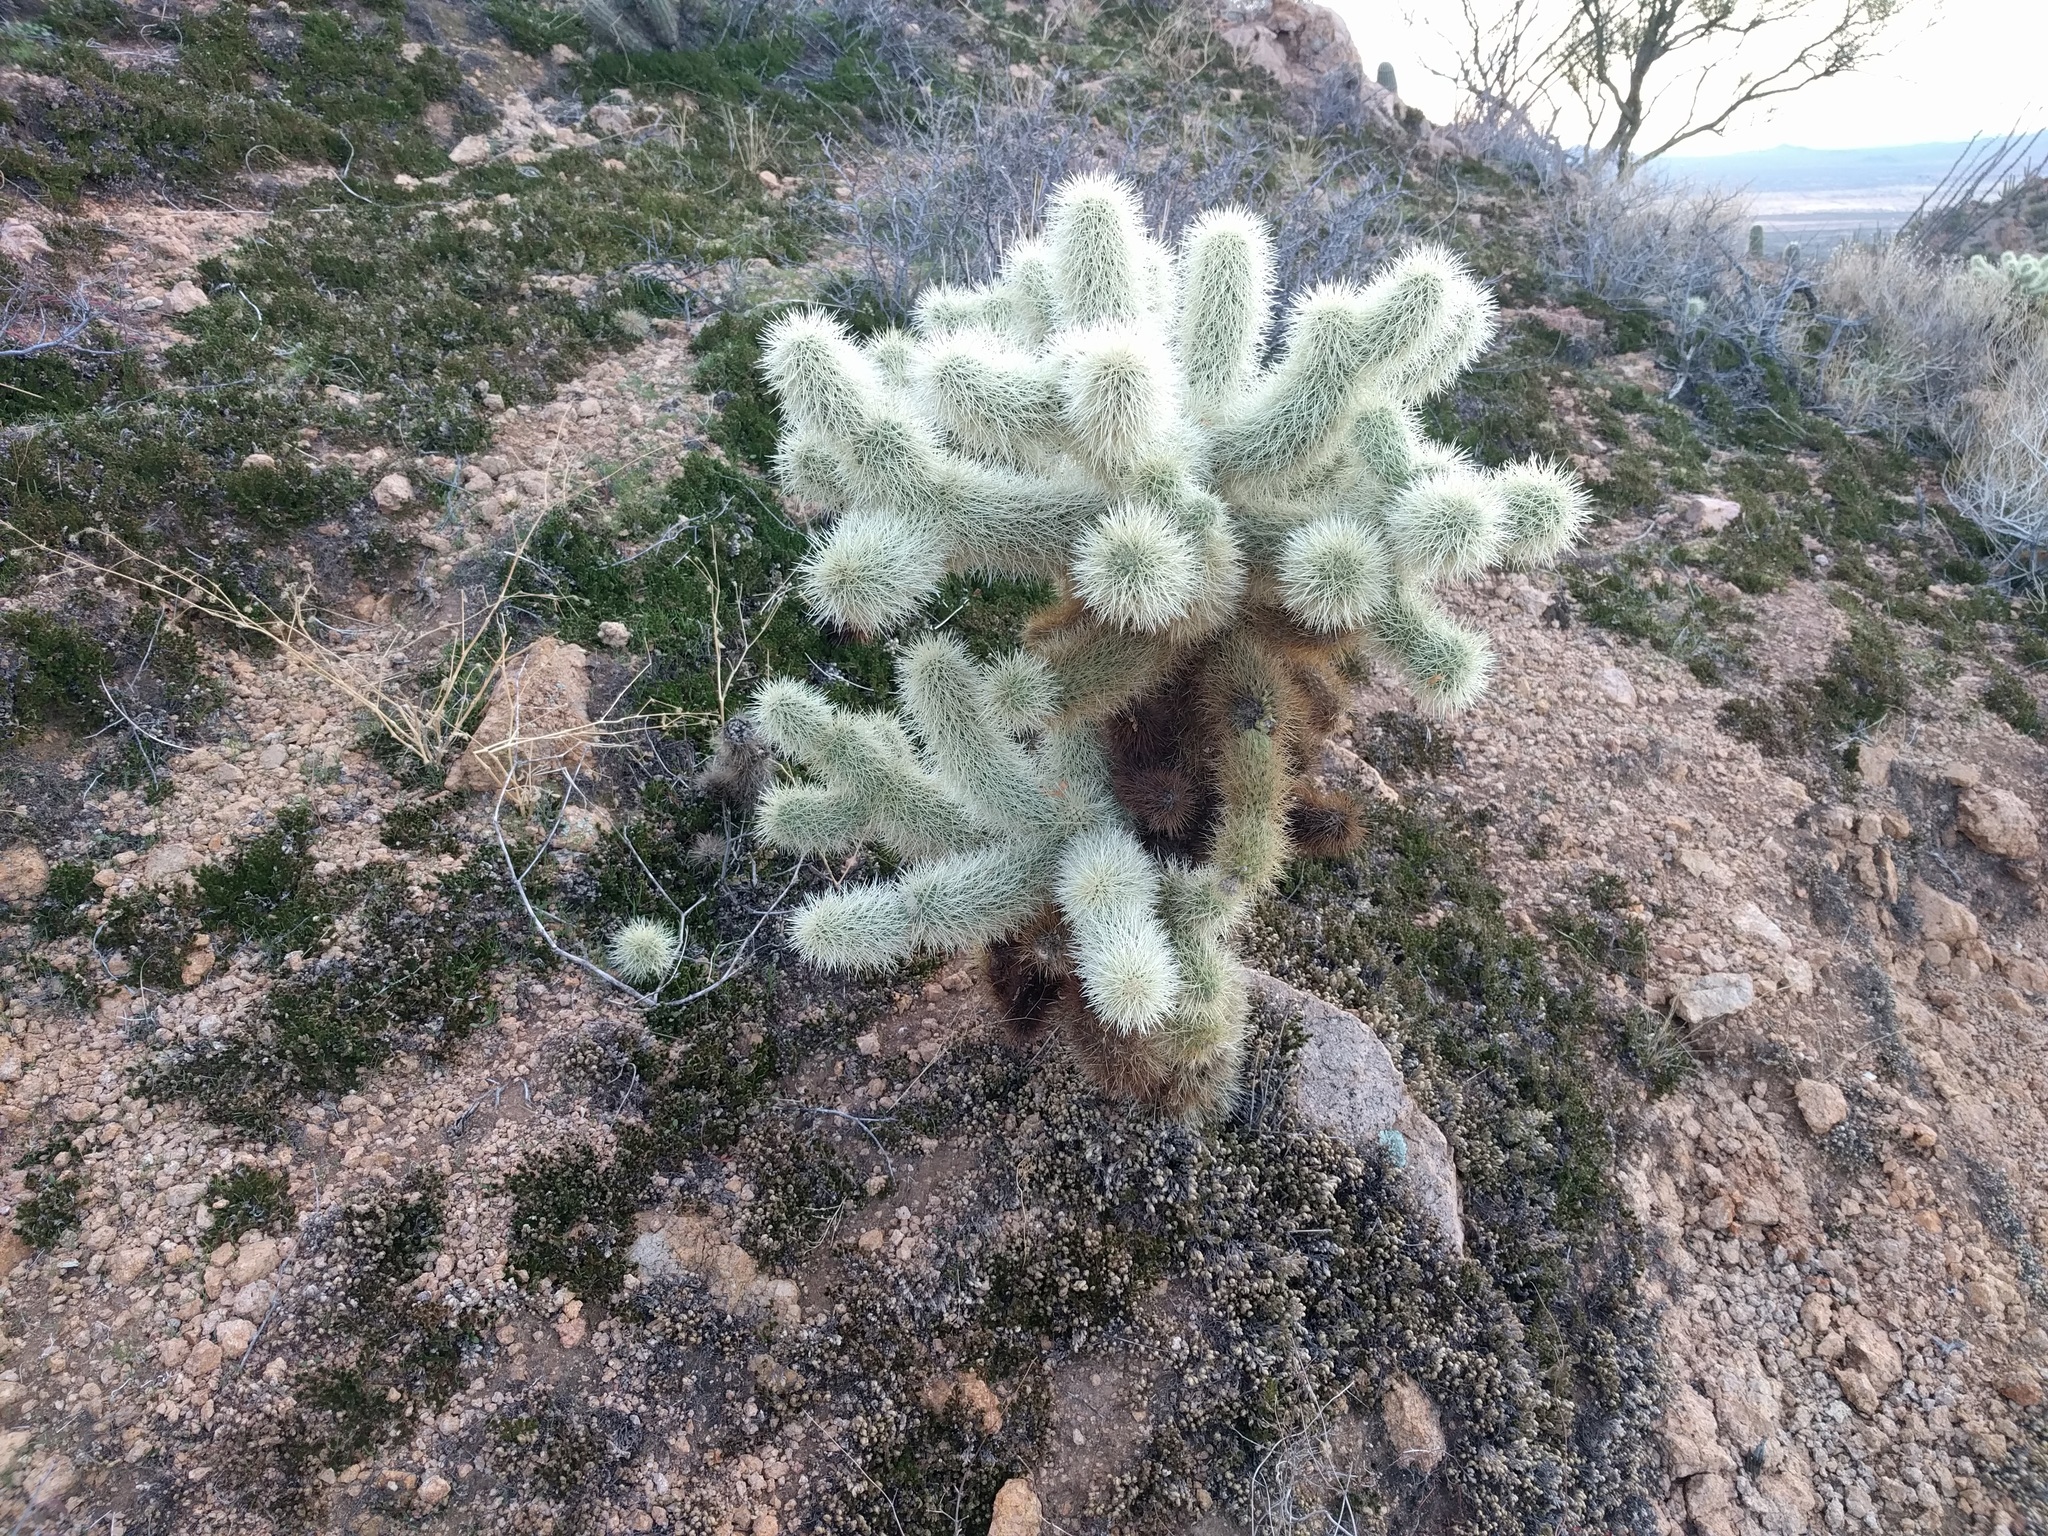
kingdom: Plantae
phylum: Tracheophyta
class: Magnoliopsida
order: Caryophyllales
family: Cactaceae
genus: Cylindropuntia
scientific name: Cylindropuntia fosbergii
